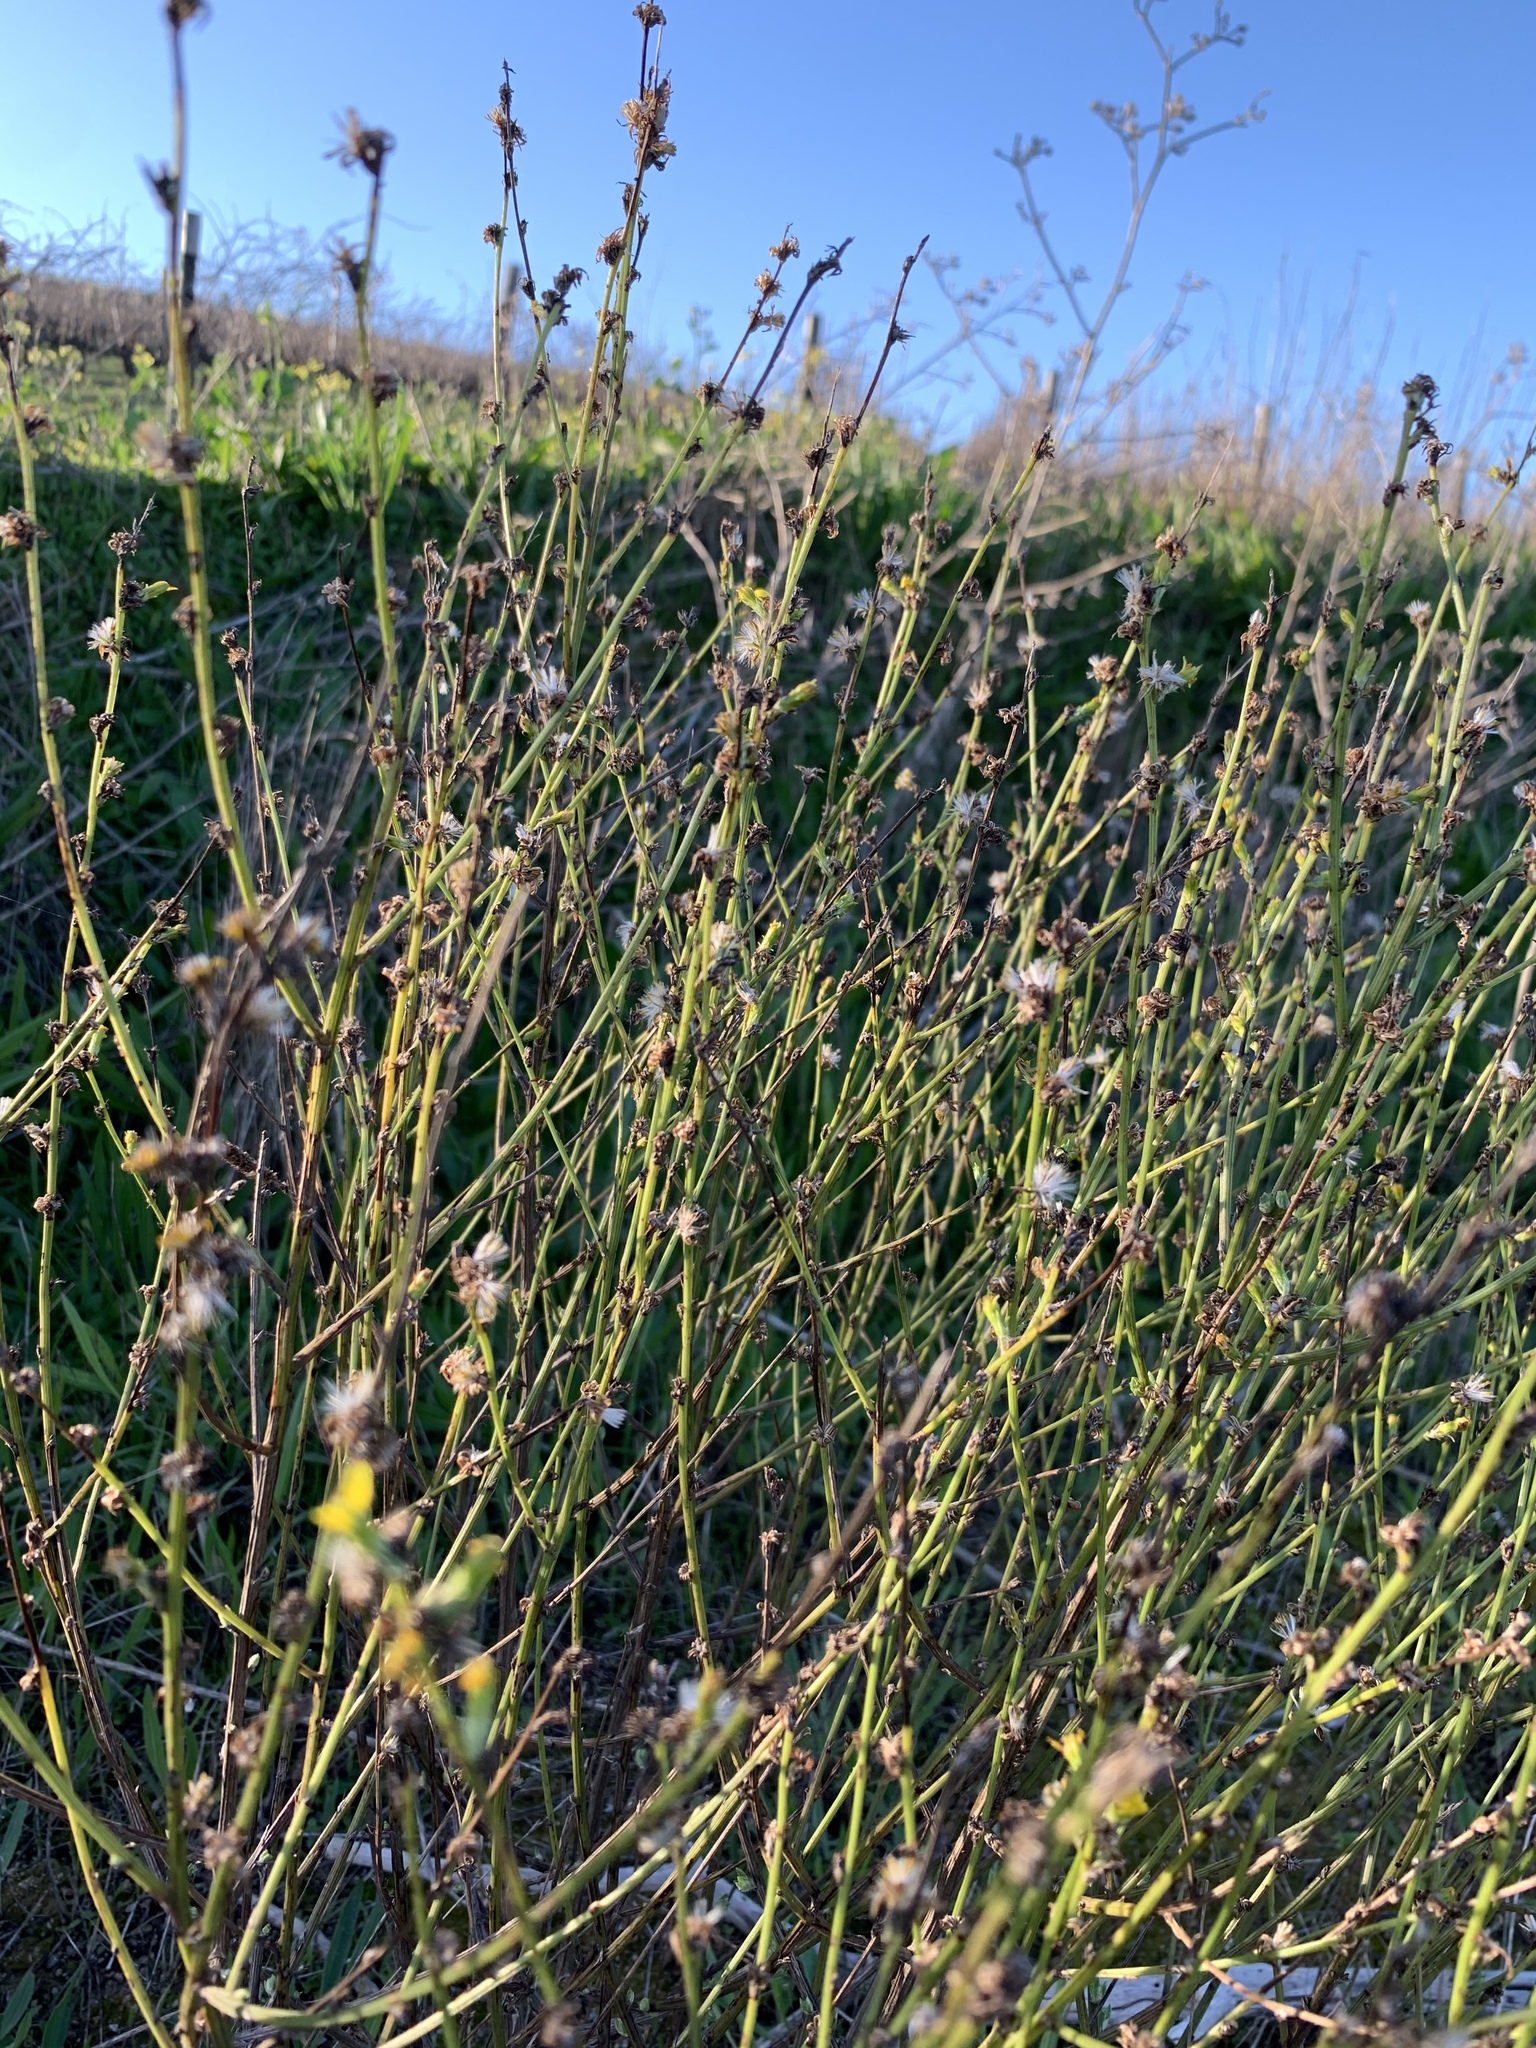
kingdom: Plantae
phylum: Tracheophyta
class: Magnoliopsida
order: Asterales
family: Asteraceae
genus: Senecio
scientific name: Senecio pubigerus
